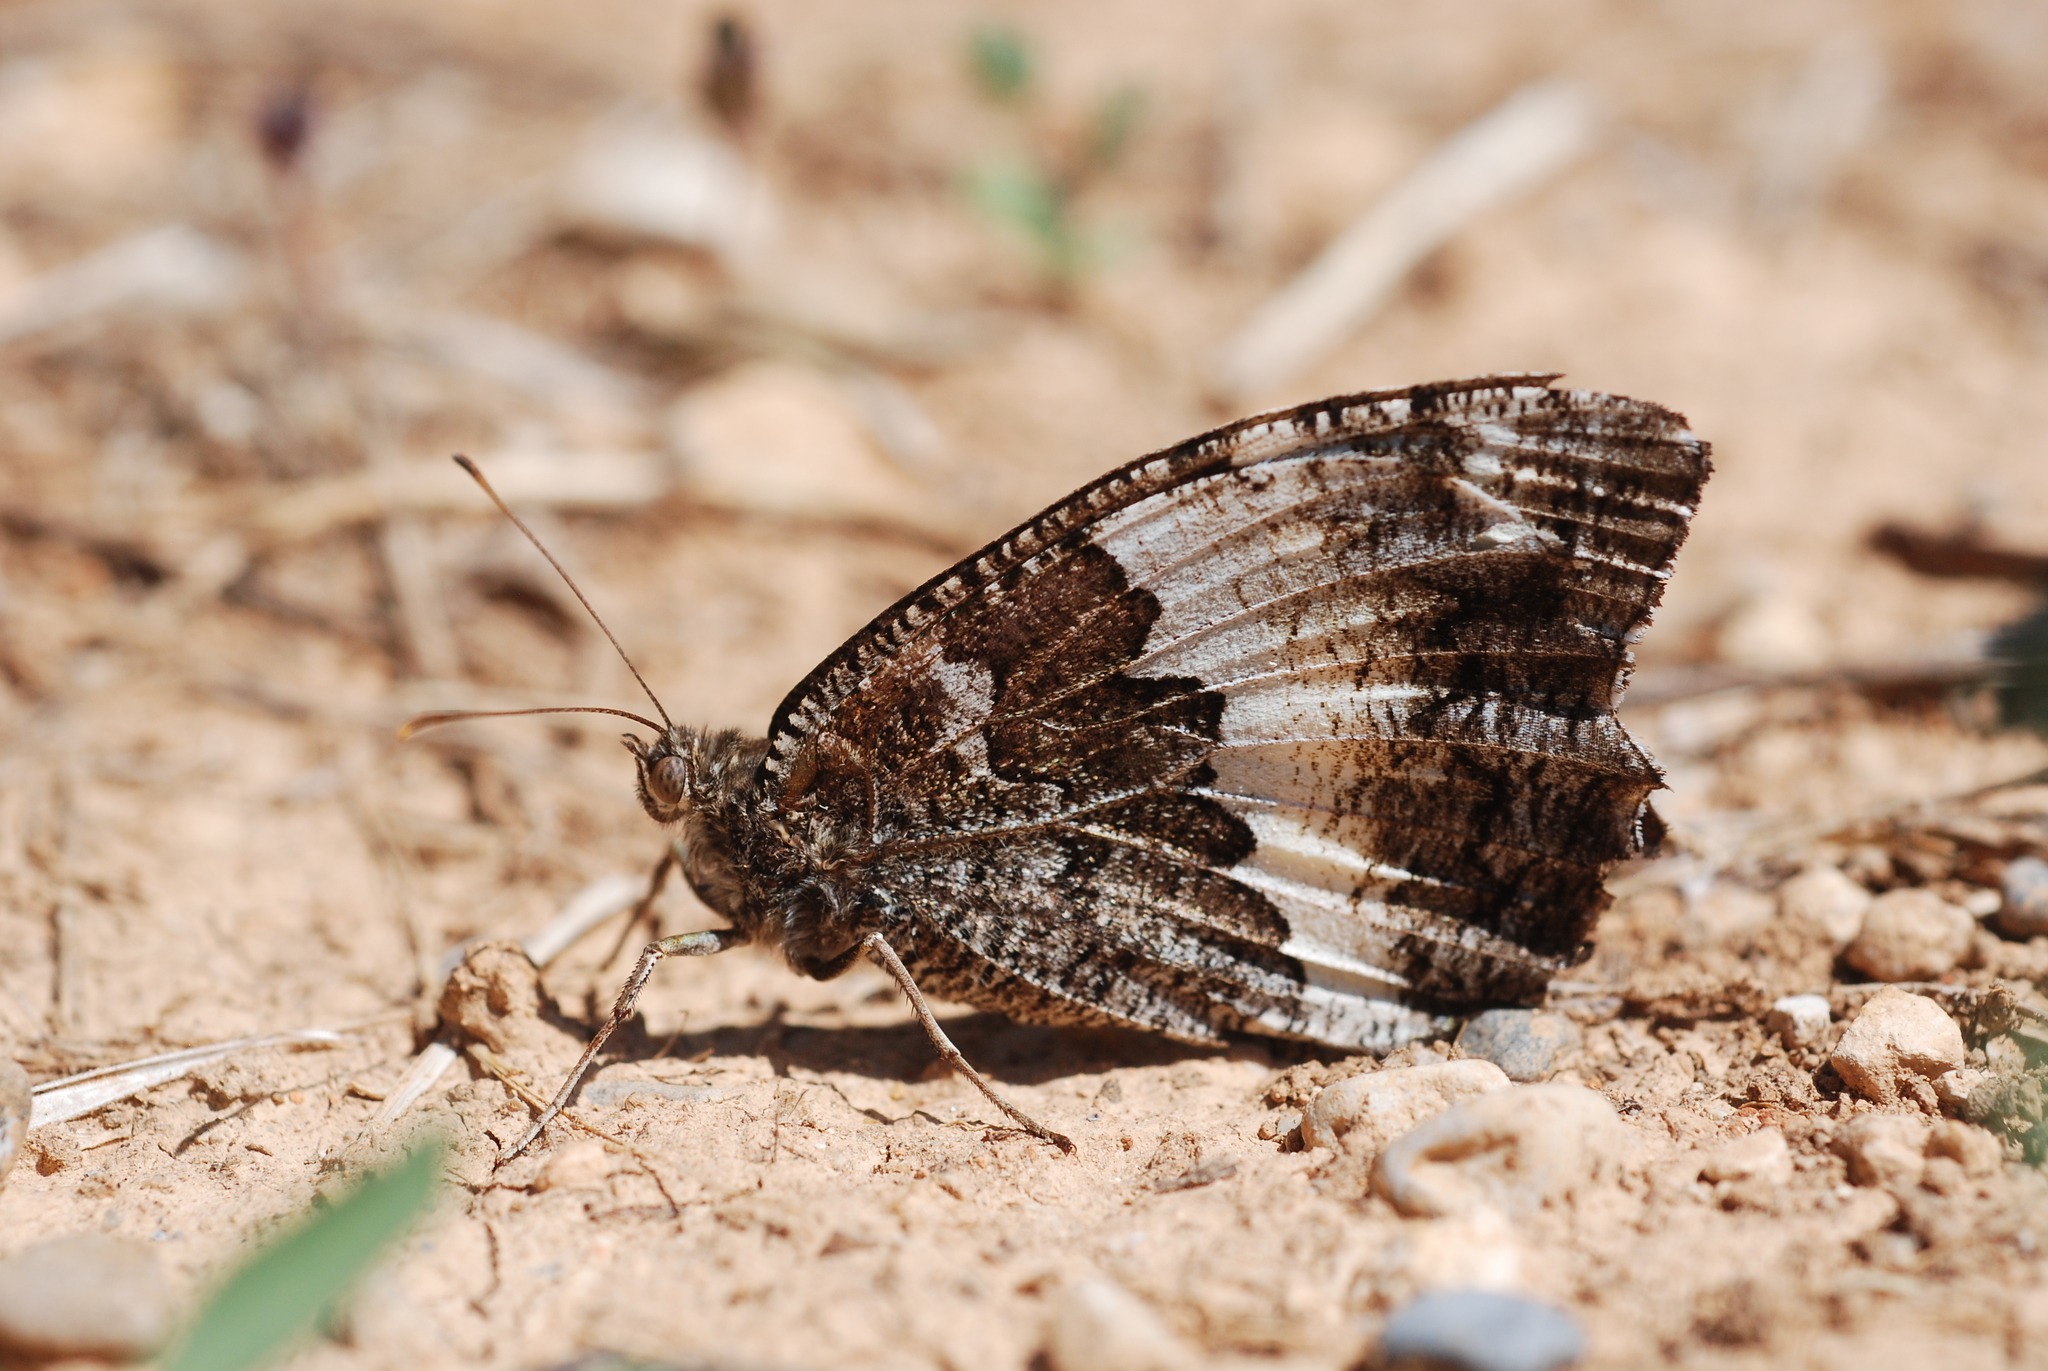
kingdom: Animalia
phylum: Arthropoda
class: Insecta
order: Lepidoptera
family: Lycaenidae
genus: Loweia
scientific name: Loweia tityrus
